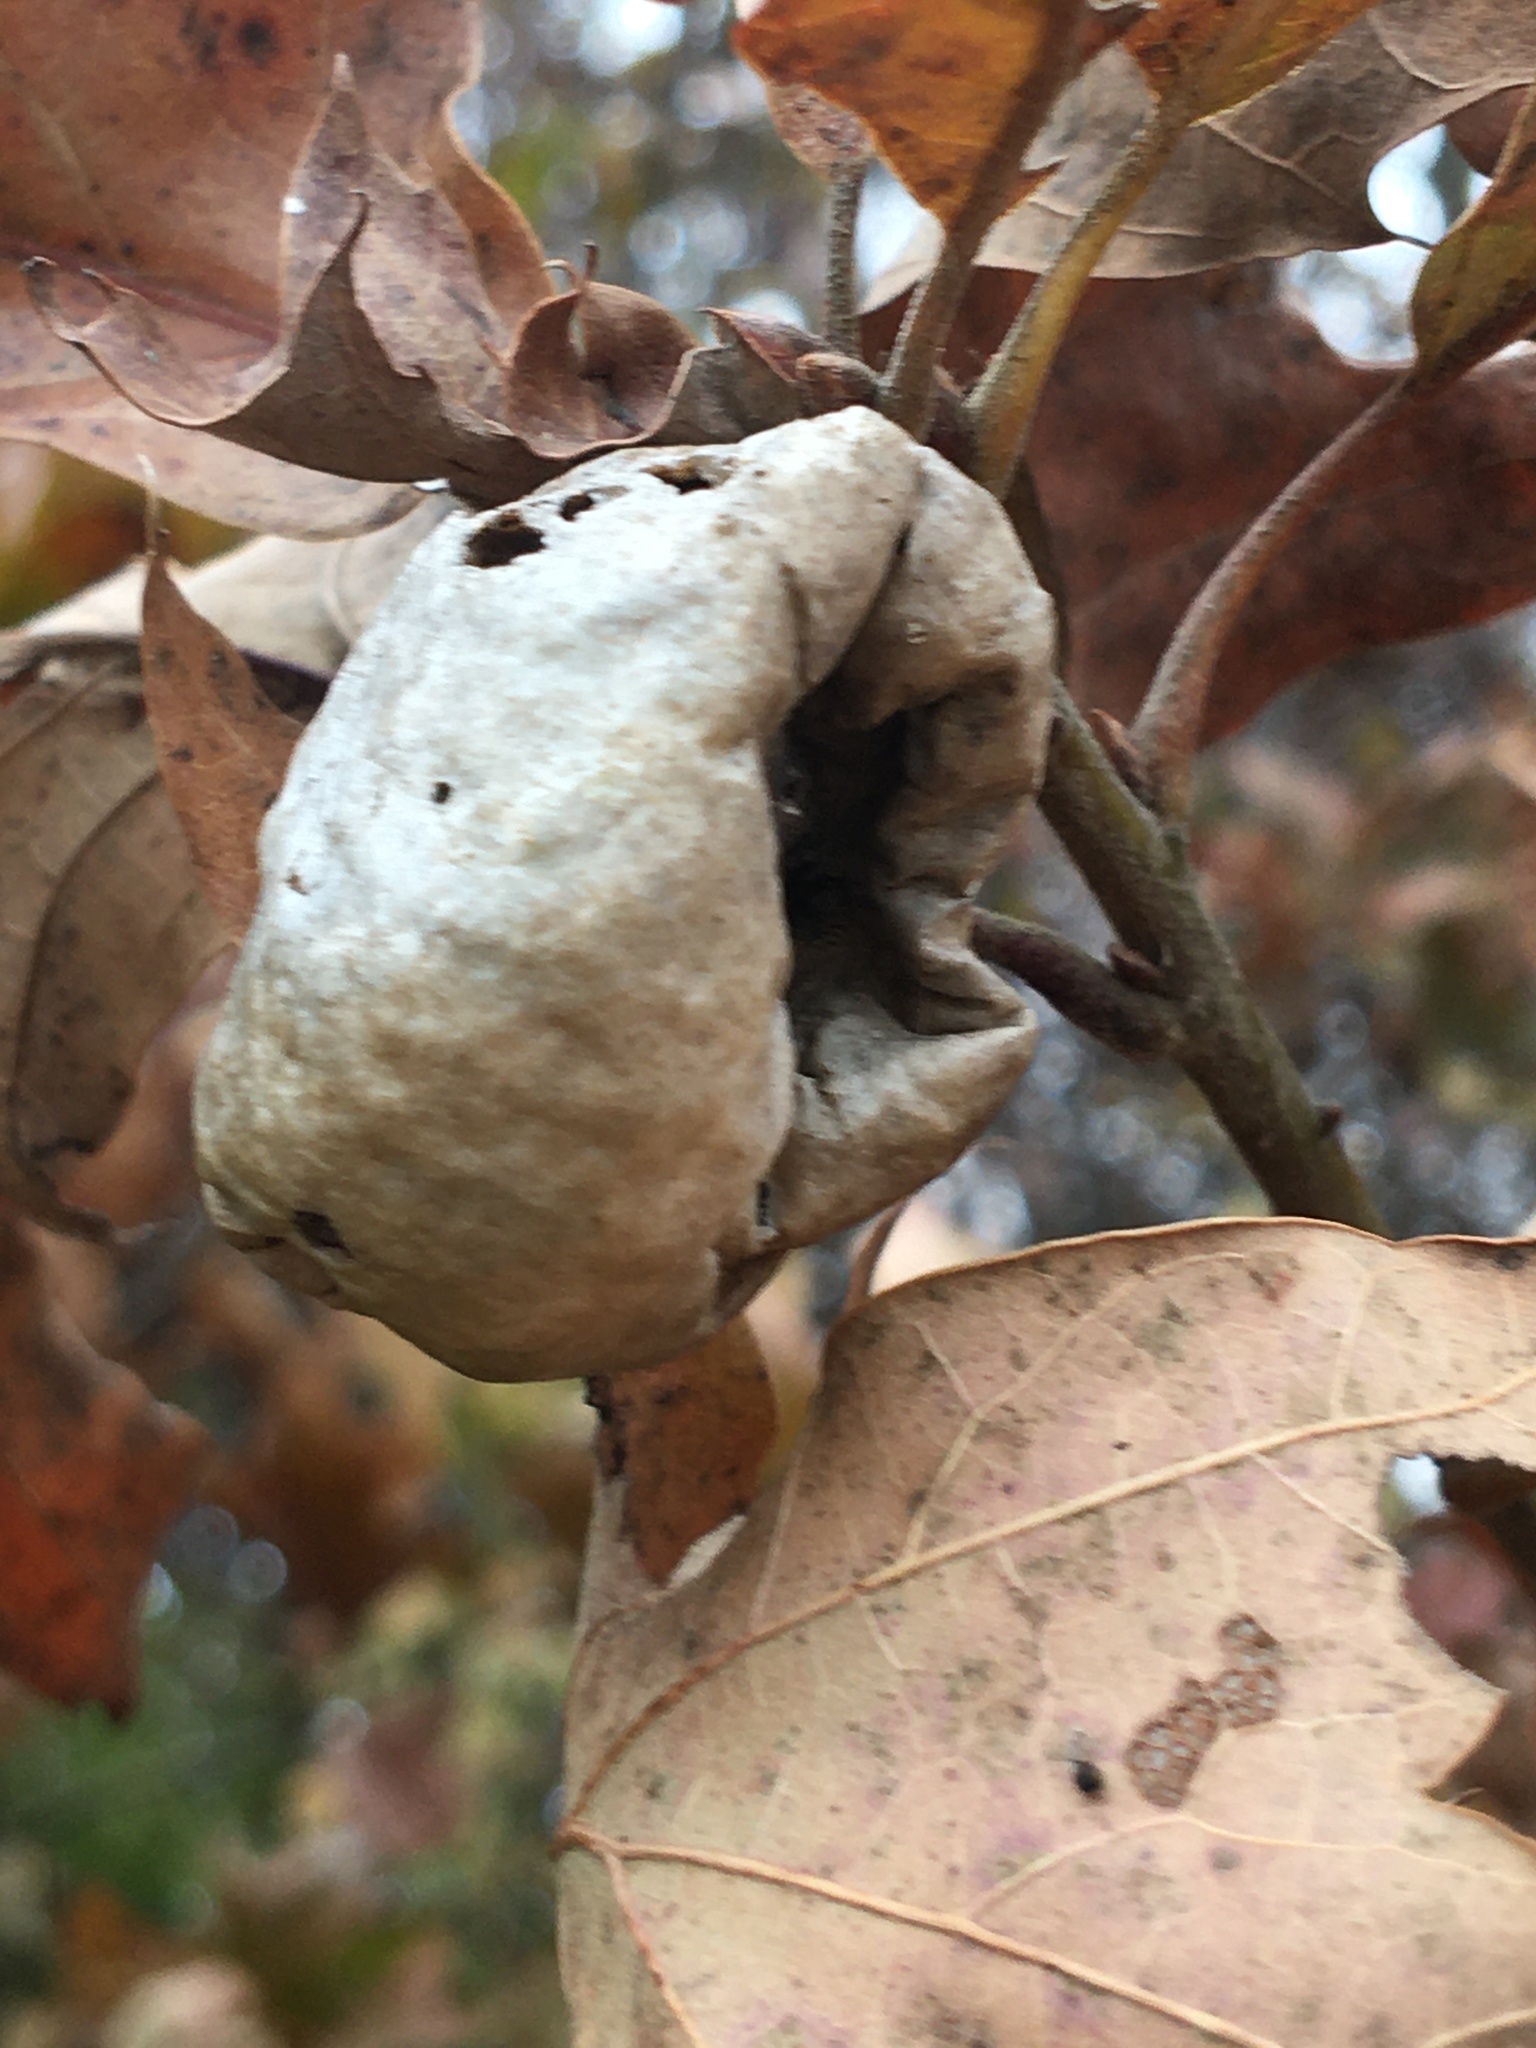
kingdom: Animalia
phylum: Arthropoda
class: Insecta
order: Hymenoptera
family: Cynipidae
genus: Amphibolips
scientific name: Amphibolips
